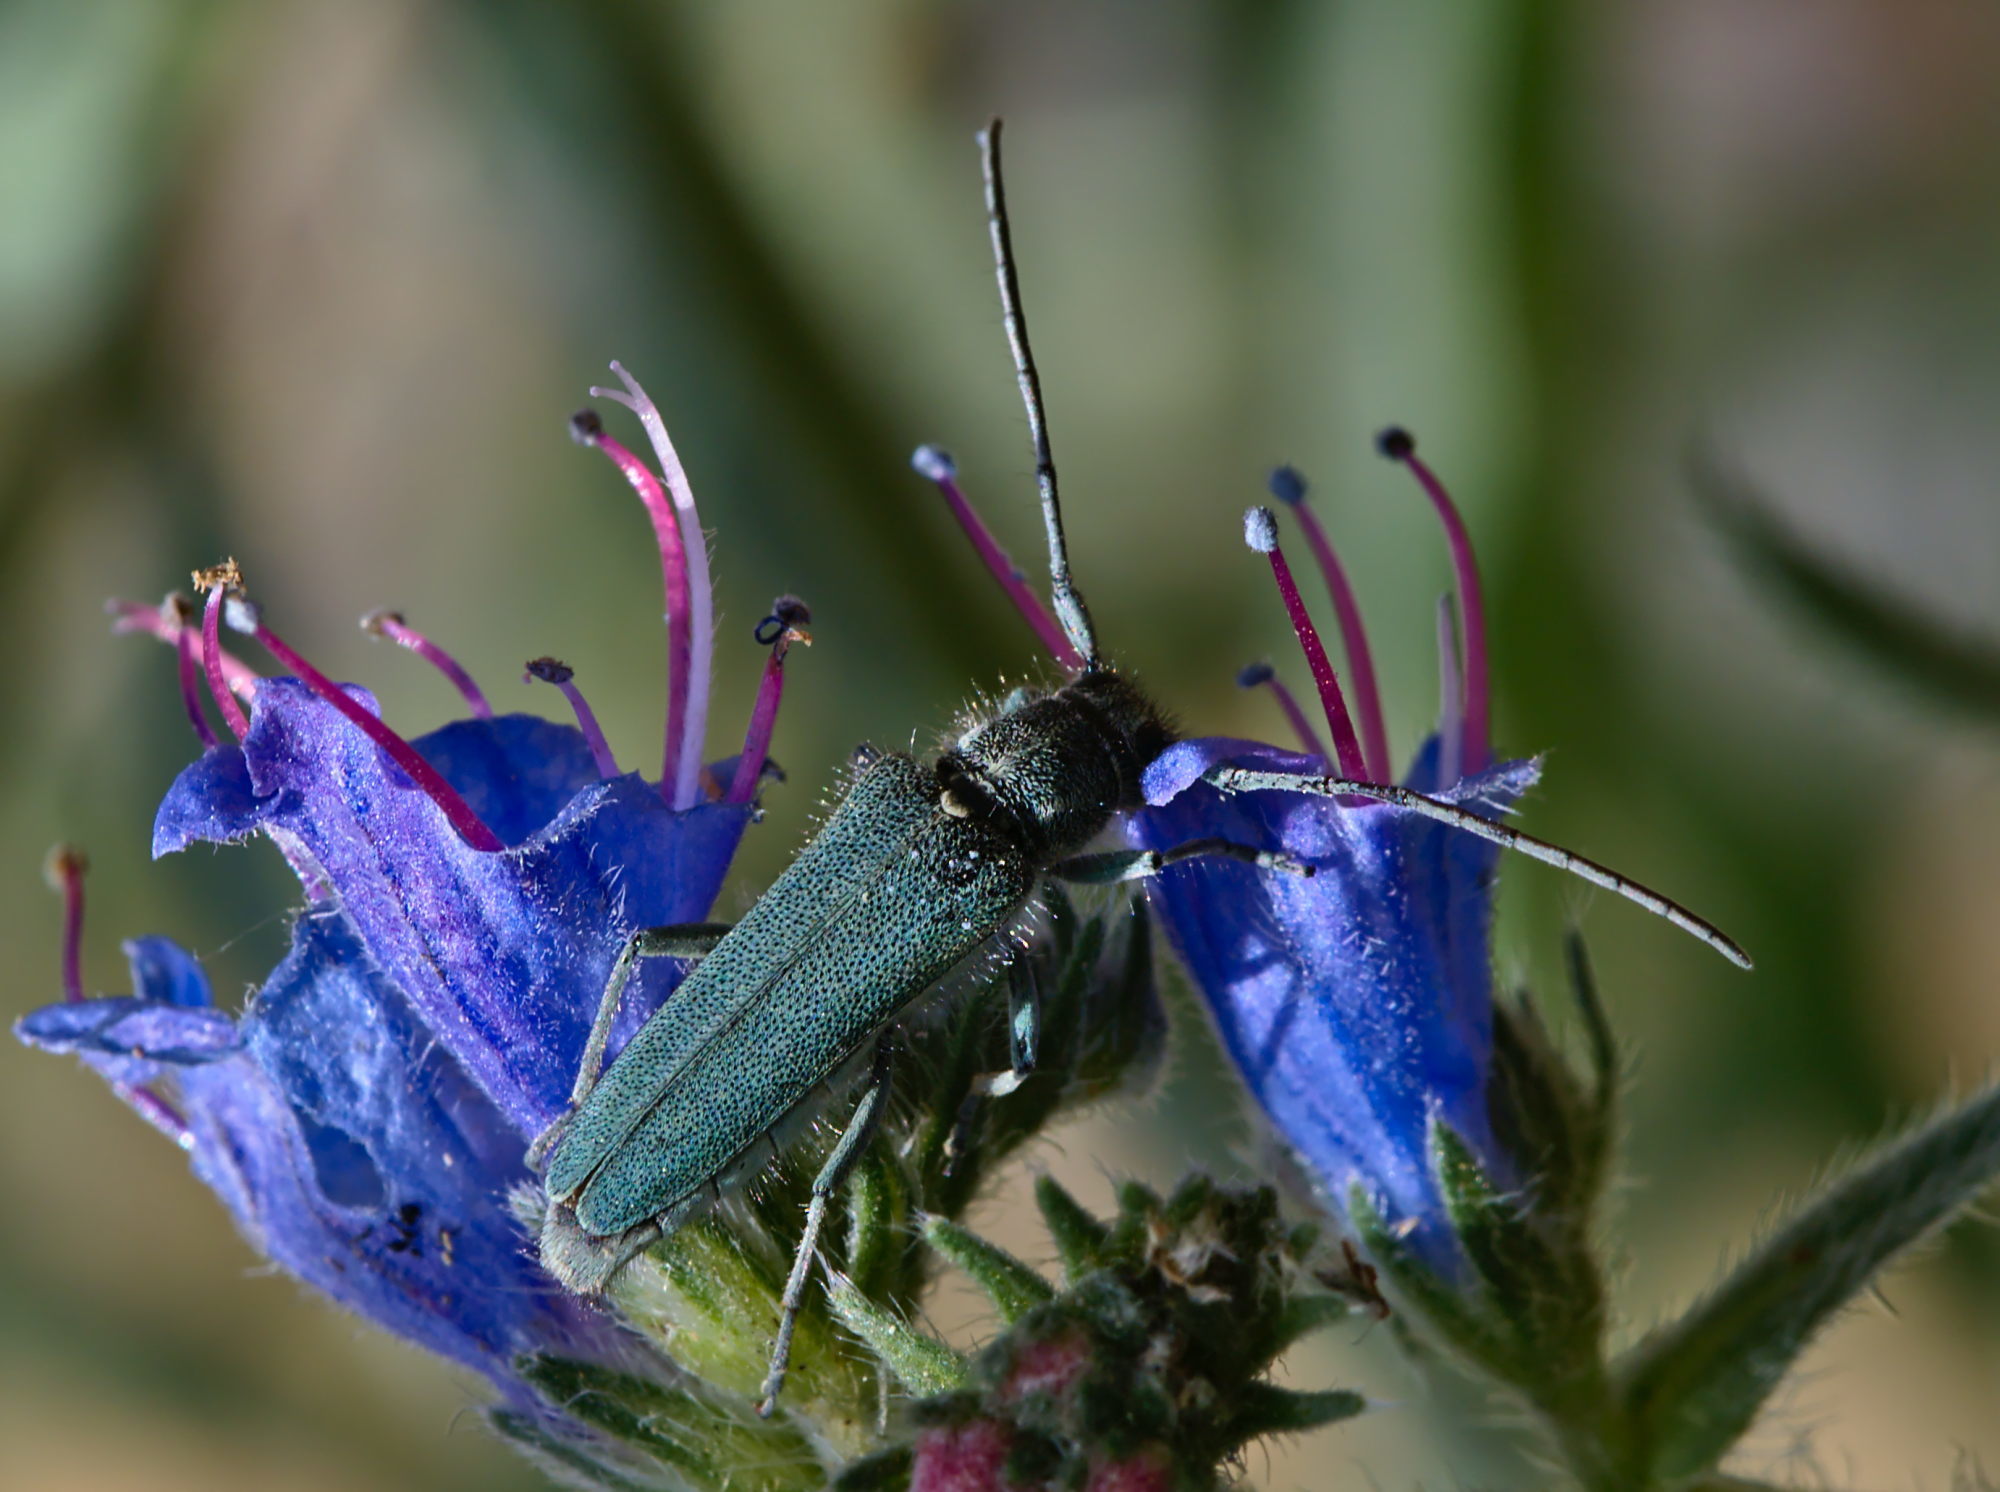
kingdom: Animalia
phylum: Arthropoda
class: Insecta
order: Coleoptera
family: Cerambycidae
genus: Phytoecia
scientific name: Phytoecia coerulescens
